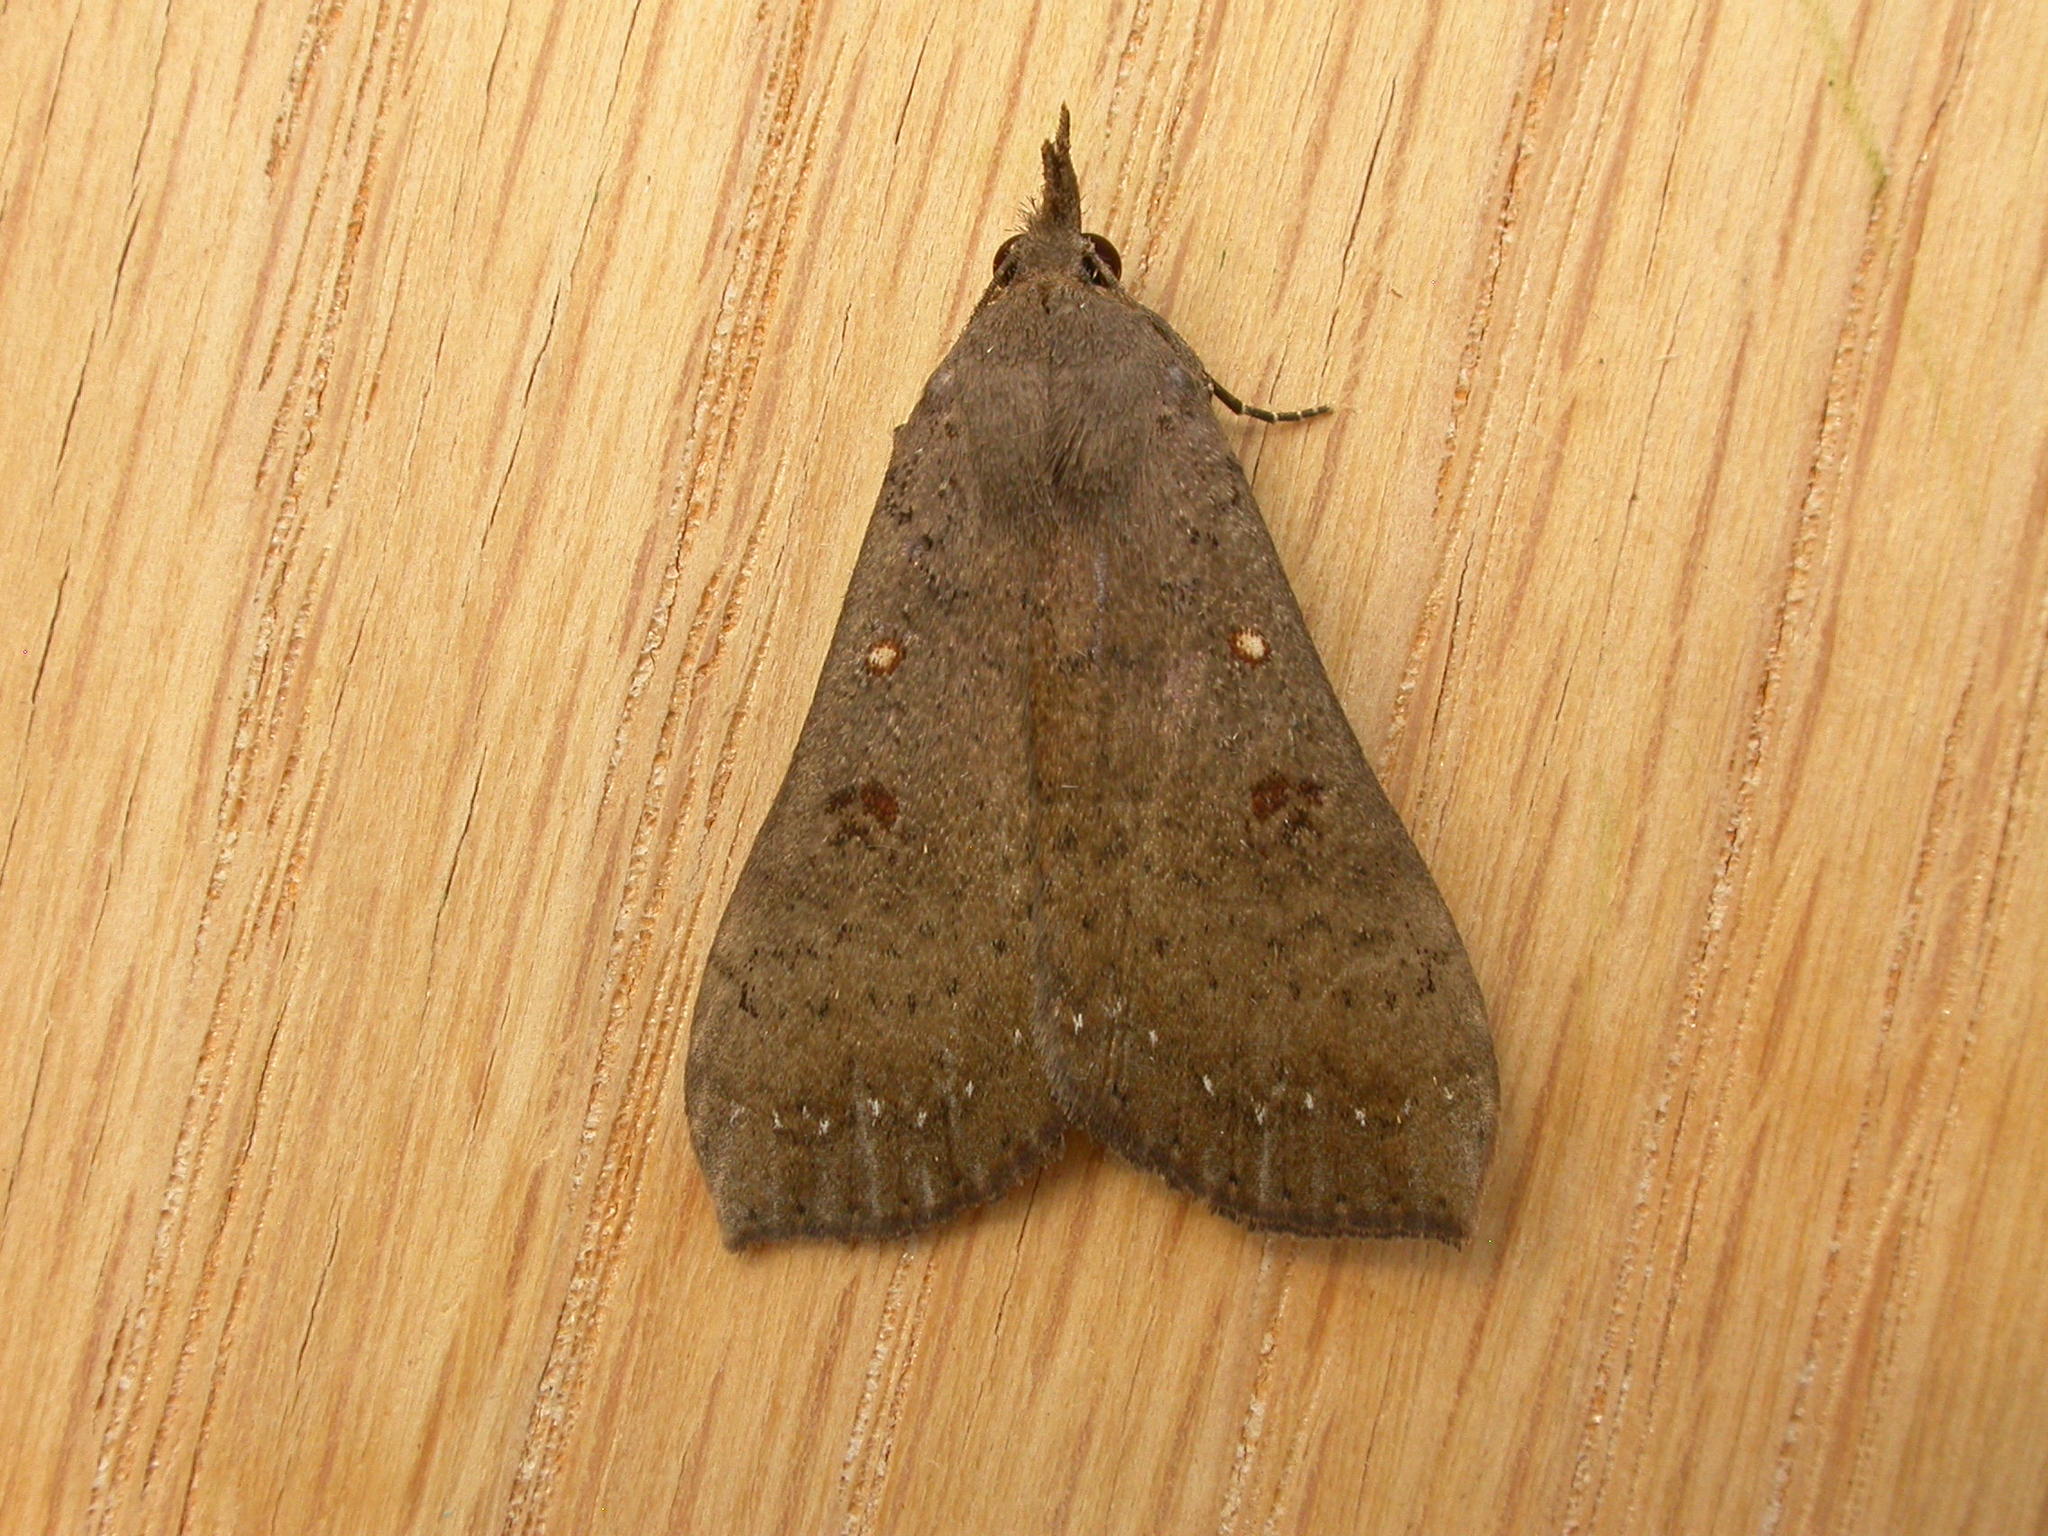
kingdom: Animalia
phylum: Arthropoda
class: Insecta
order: Lepidoptera
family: Erebidae
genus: Rhapsa
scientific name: Rhapsa suscitatalis
